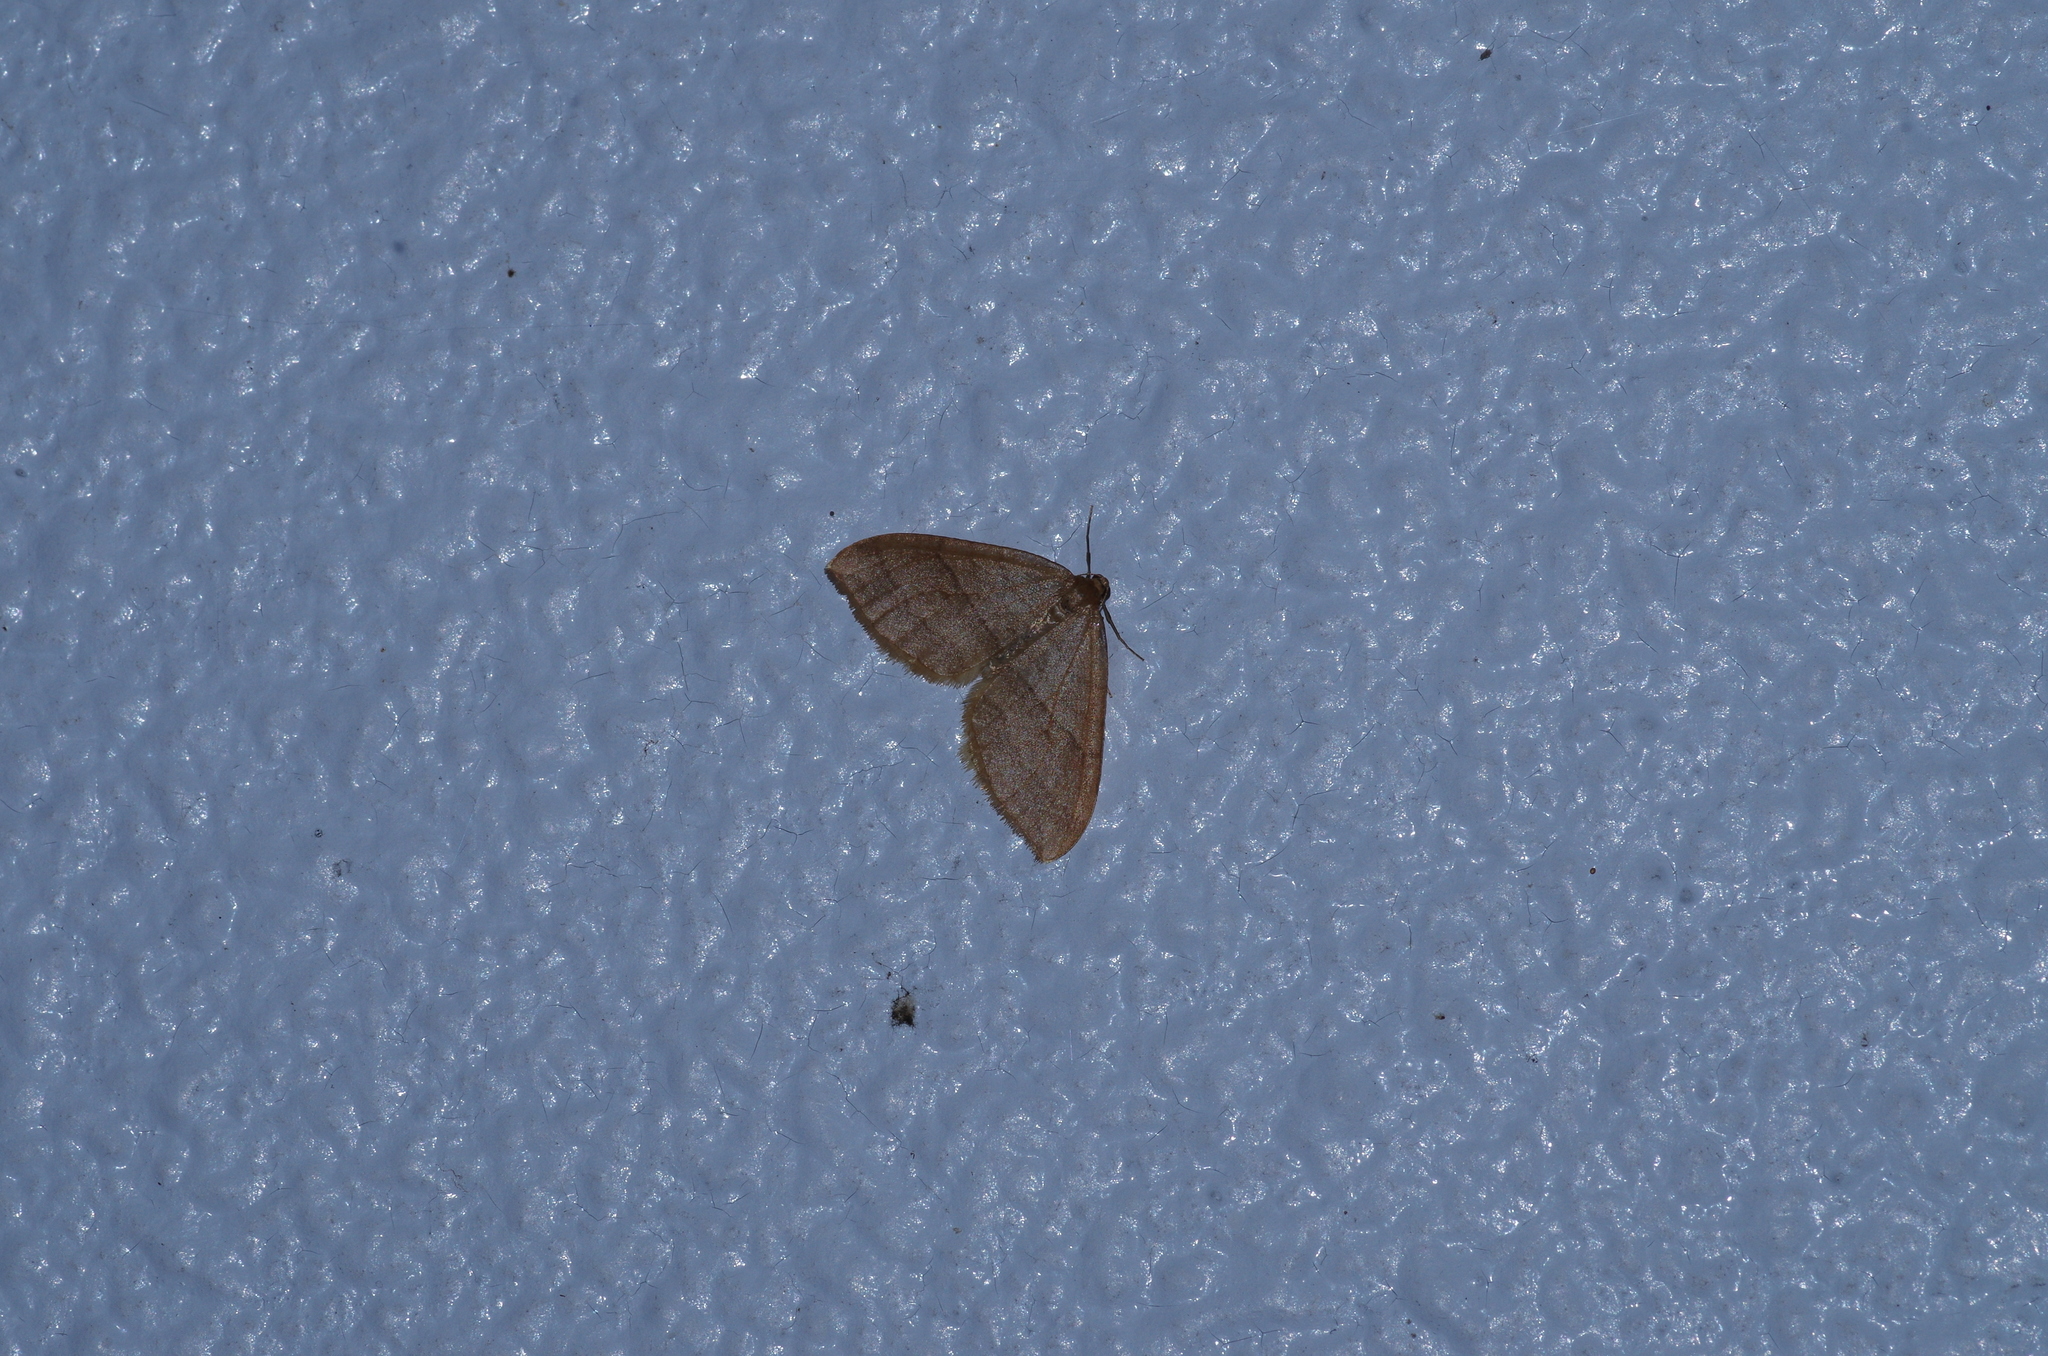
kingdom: Animalia
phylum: Arthropoda
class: Insecta
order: Lepidoptera
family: Geometridae
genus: Nothoporinia
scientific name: Nothoporinia mediolineata
